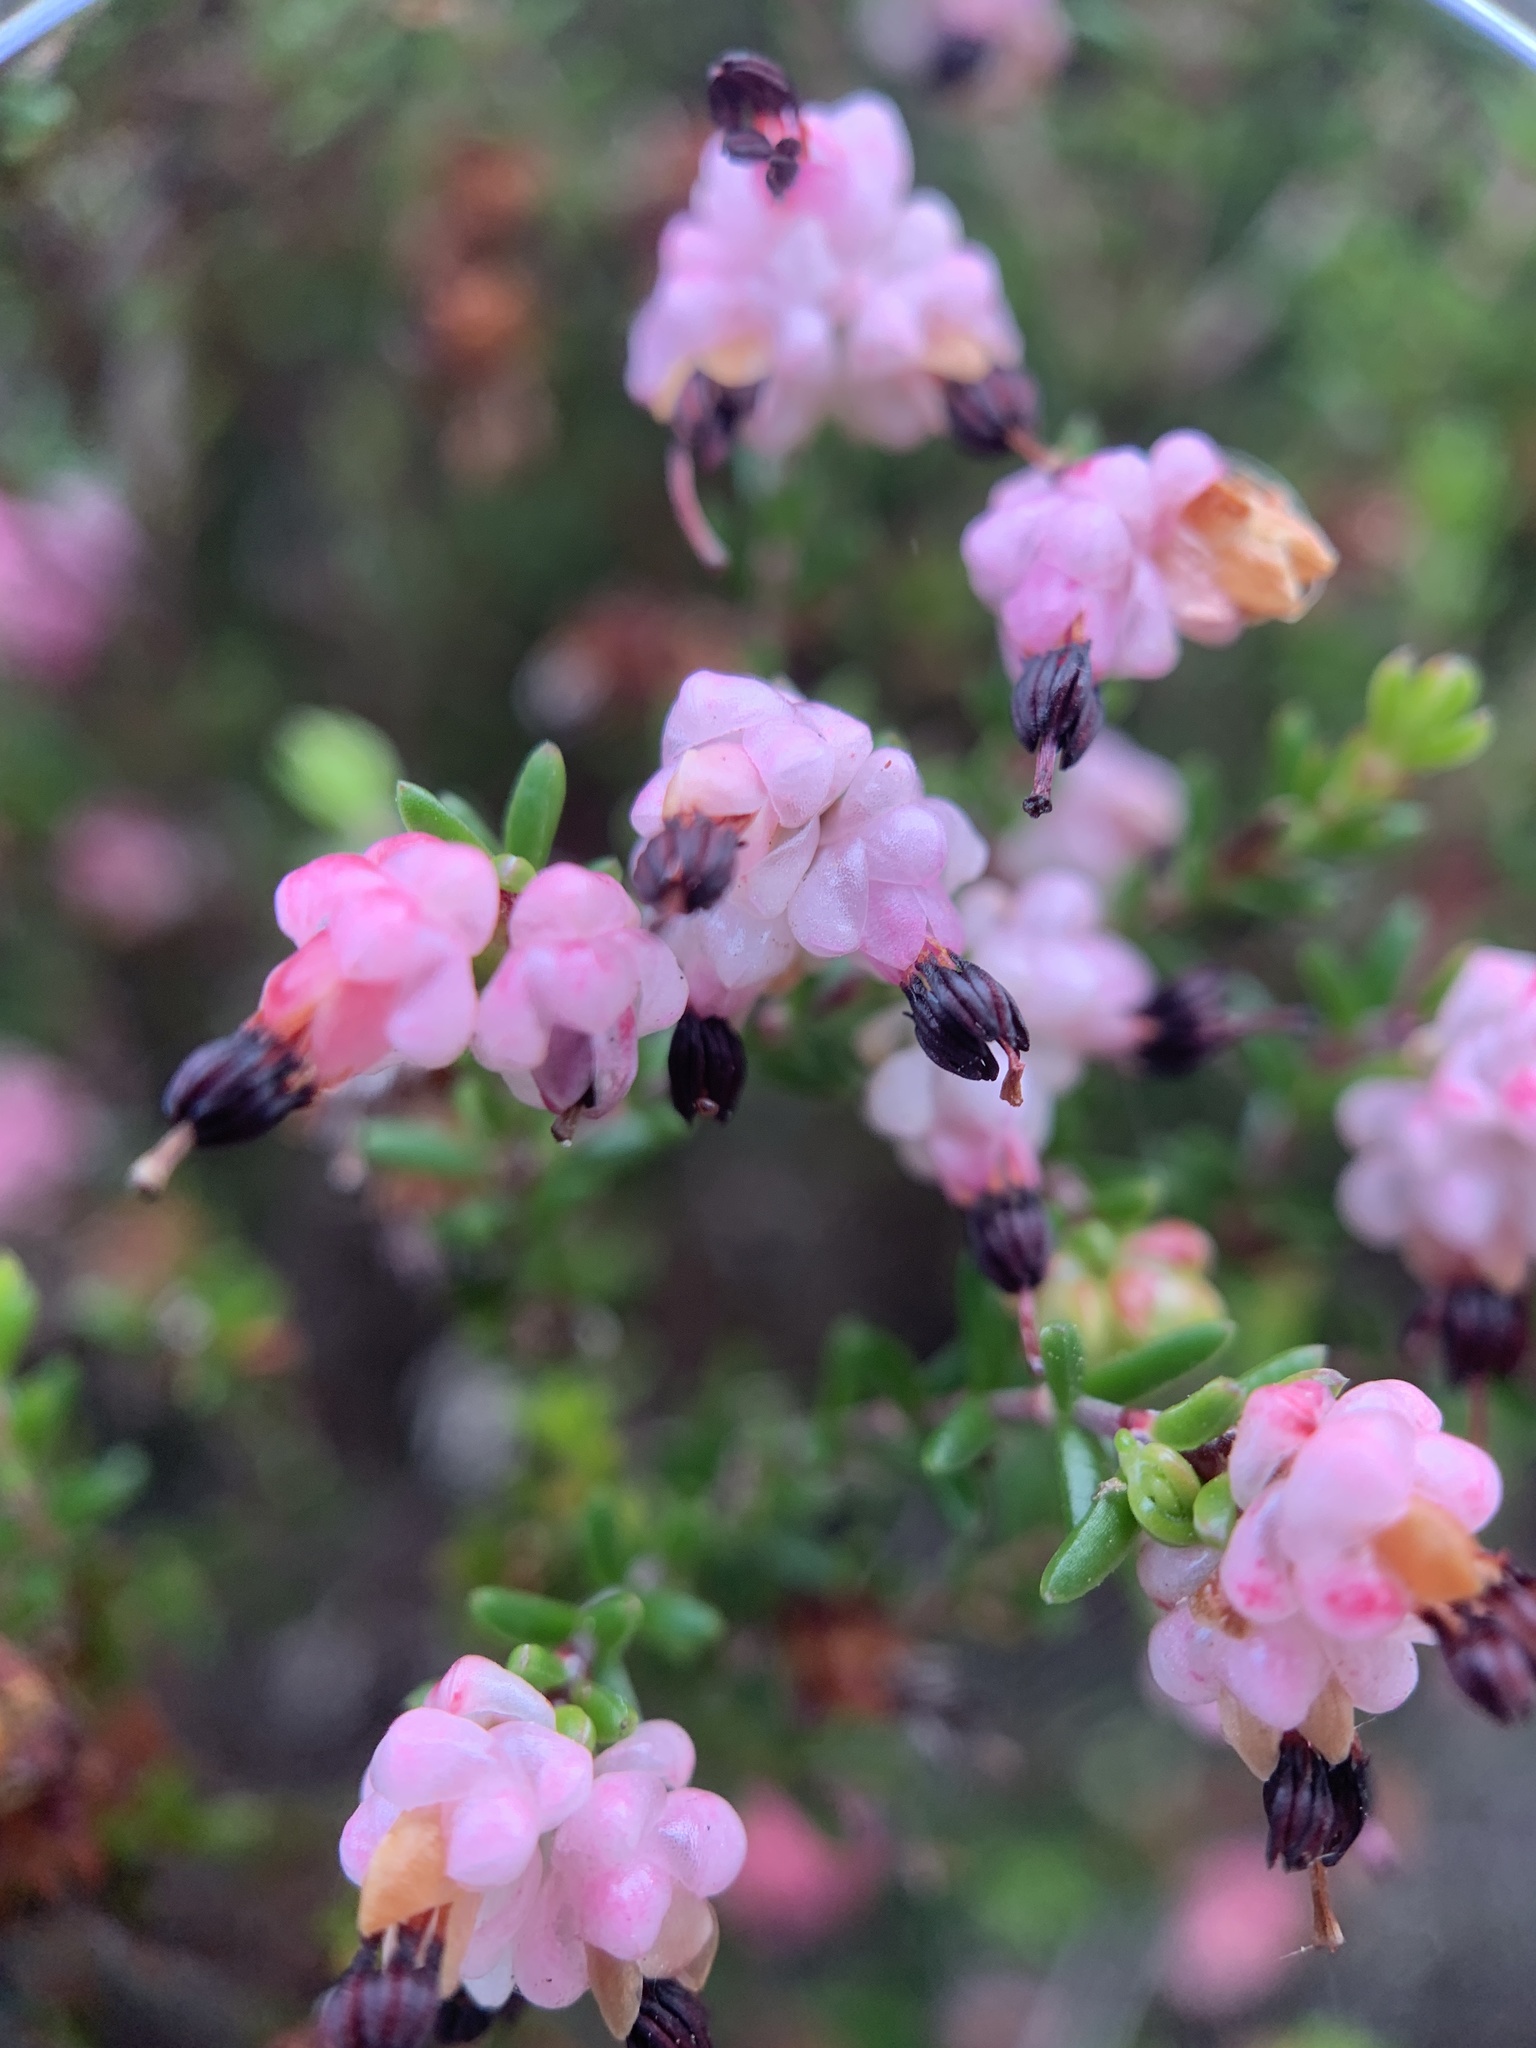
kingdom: Plantae
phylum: Tracheophyta
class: Magnoliopsida
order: Ericales
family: Ericaceae
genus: Erica
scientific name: Erica spumosa
